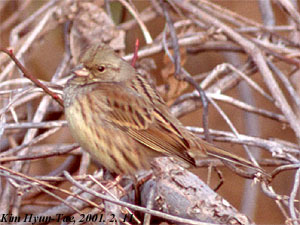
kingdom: Animalia
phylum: Chordata
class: Aves
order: Passeriformes
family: Emberizidae
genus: Emberiza
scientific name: Emberiza spodocephala
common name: Black-faced bunting
